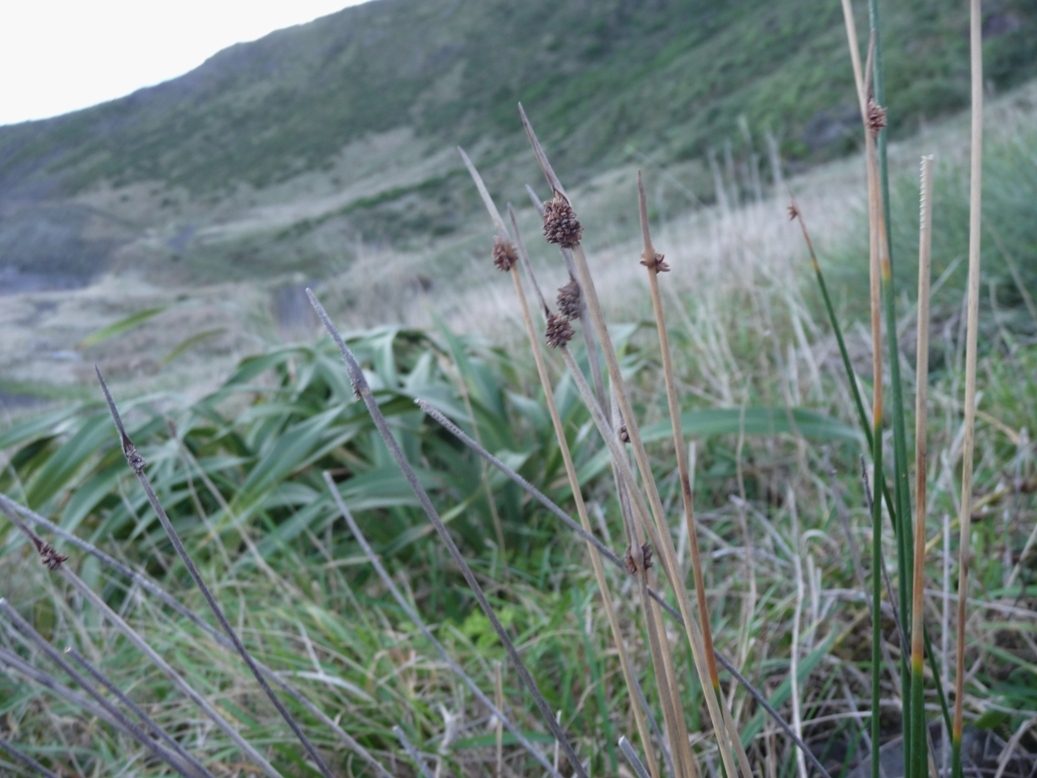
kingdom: Plantae
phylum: Tracheophyta
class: Liliopsida
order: Poales
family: Cyperaceae
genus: Ficinia
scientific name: Ficinia nodosa
